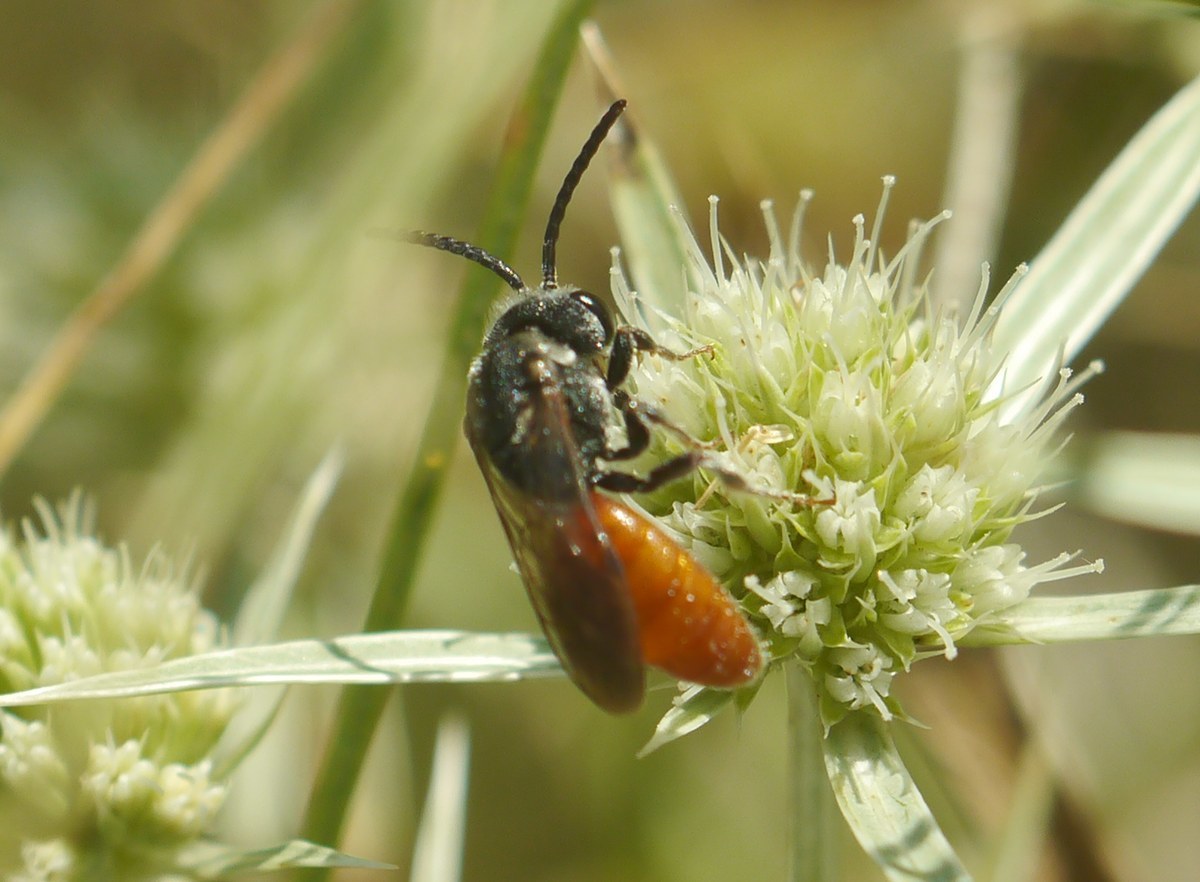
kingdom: Animalia
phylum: Arthropoda
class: Insecta
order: Hymenoptera
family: Halictidae
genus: Sphecodes
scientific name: Sphecodes albilabris
